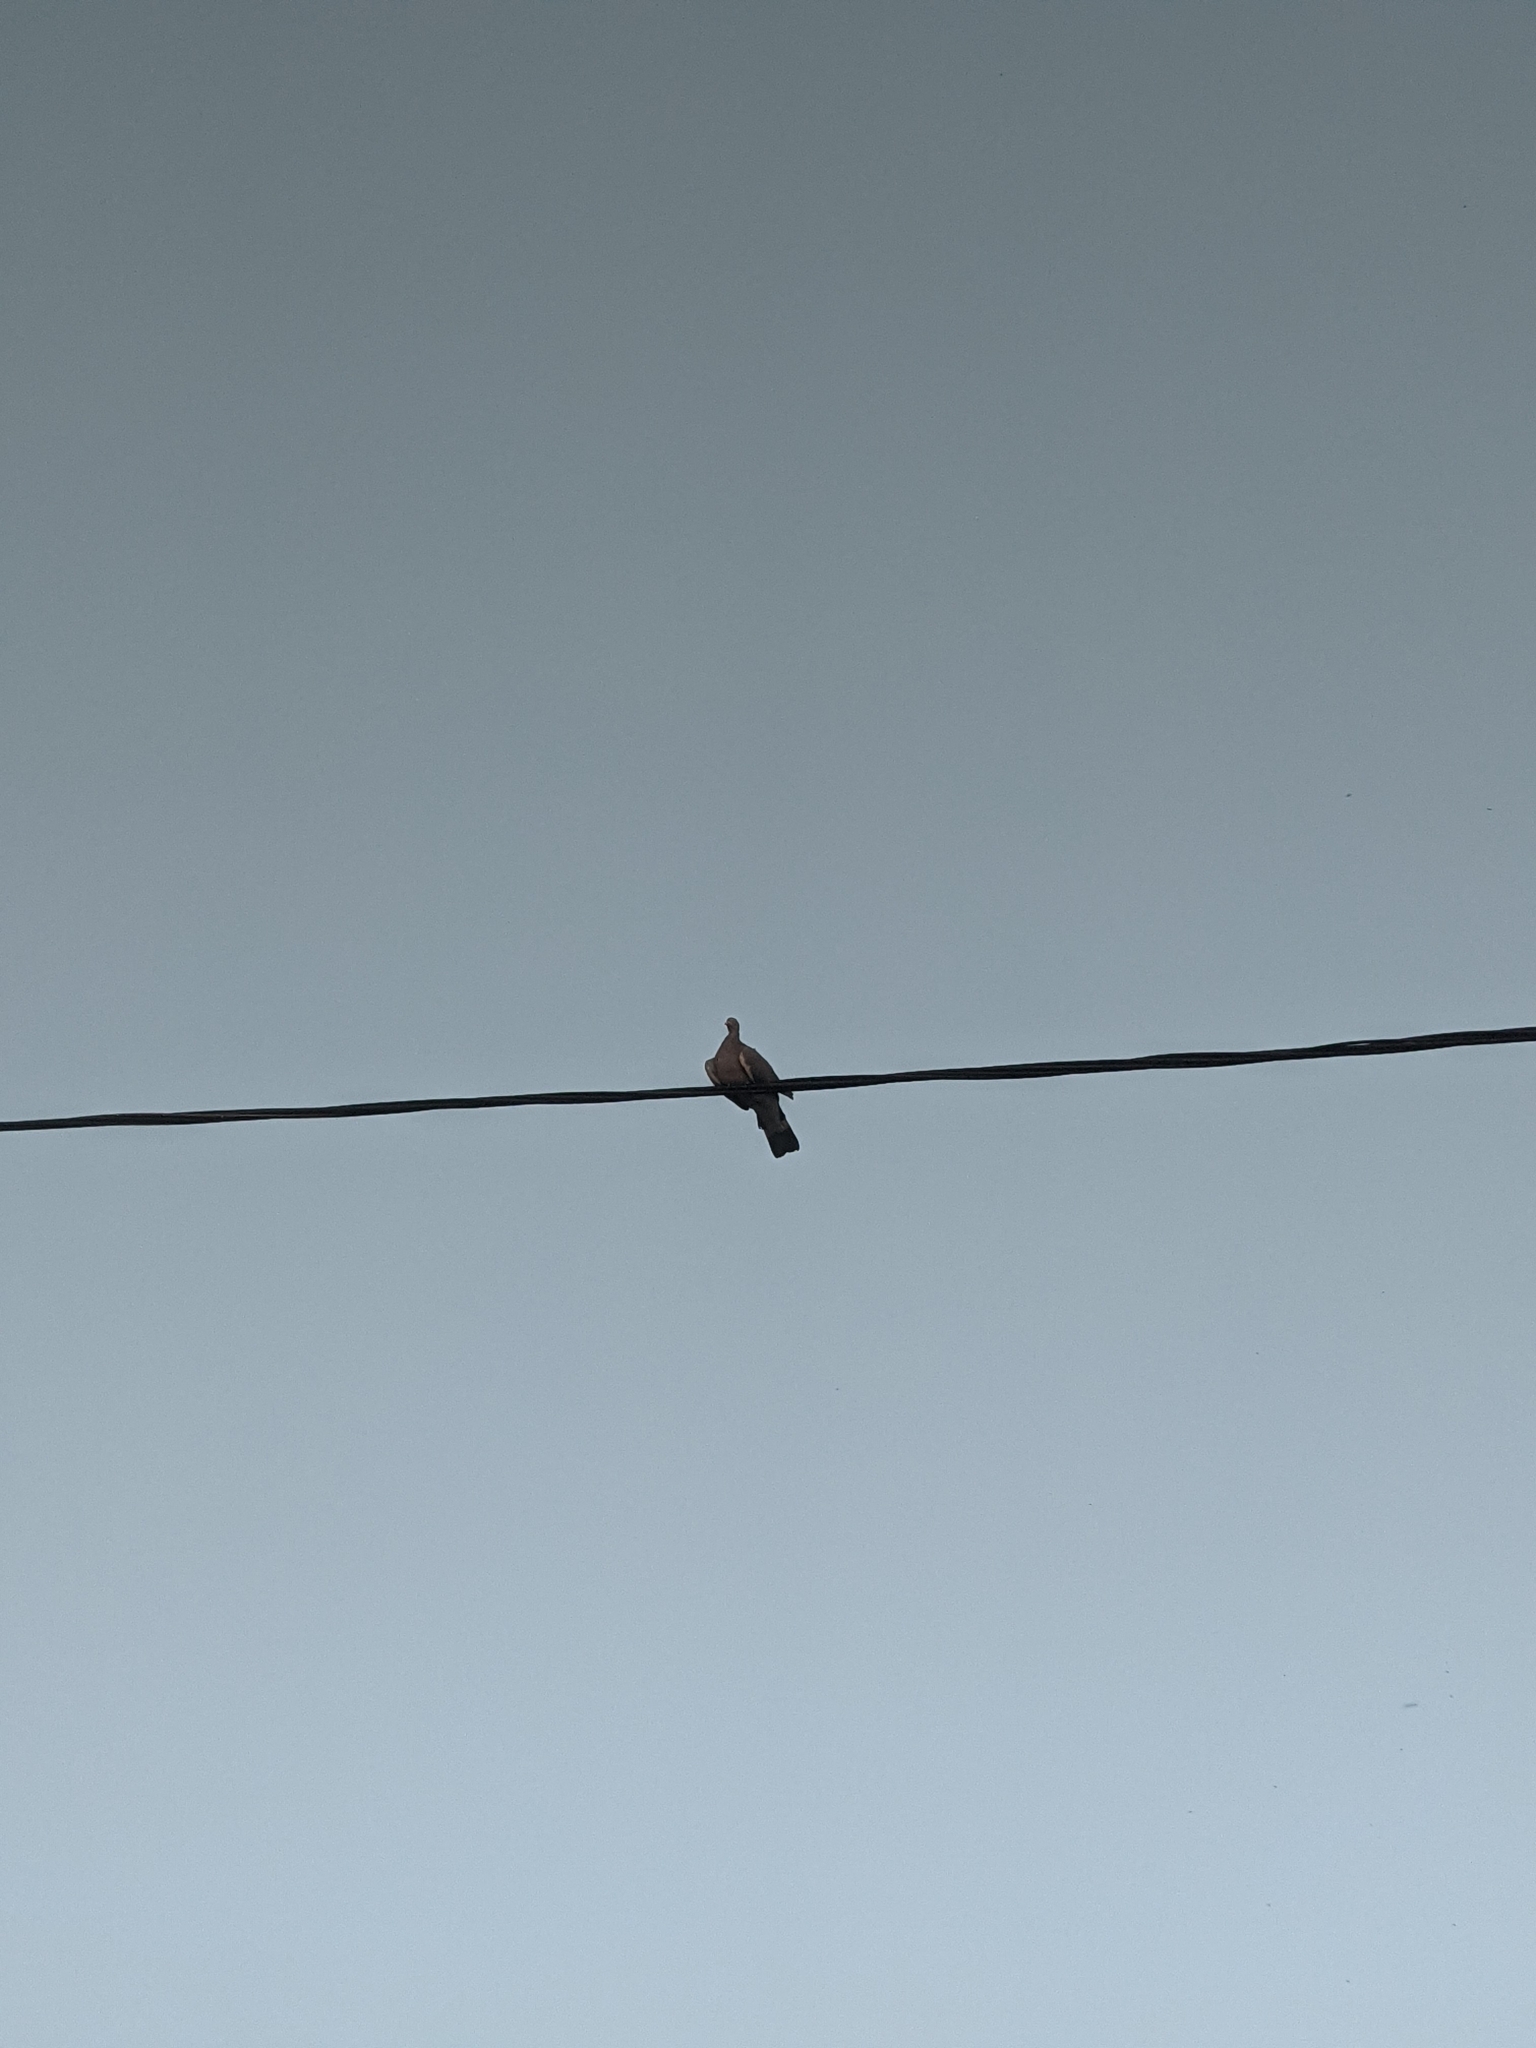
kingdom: Animalia
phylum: Chordata
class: Aves
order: Columbiformes
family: Columbidae
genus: Columba
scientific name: Columba palumbus
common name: Common wood pigeon
